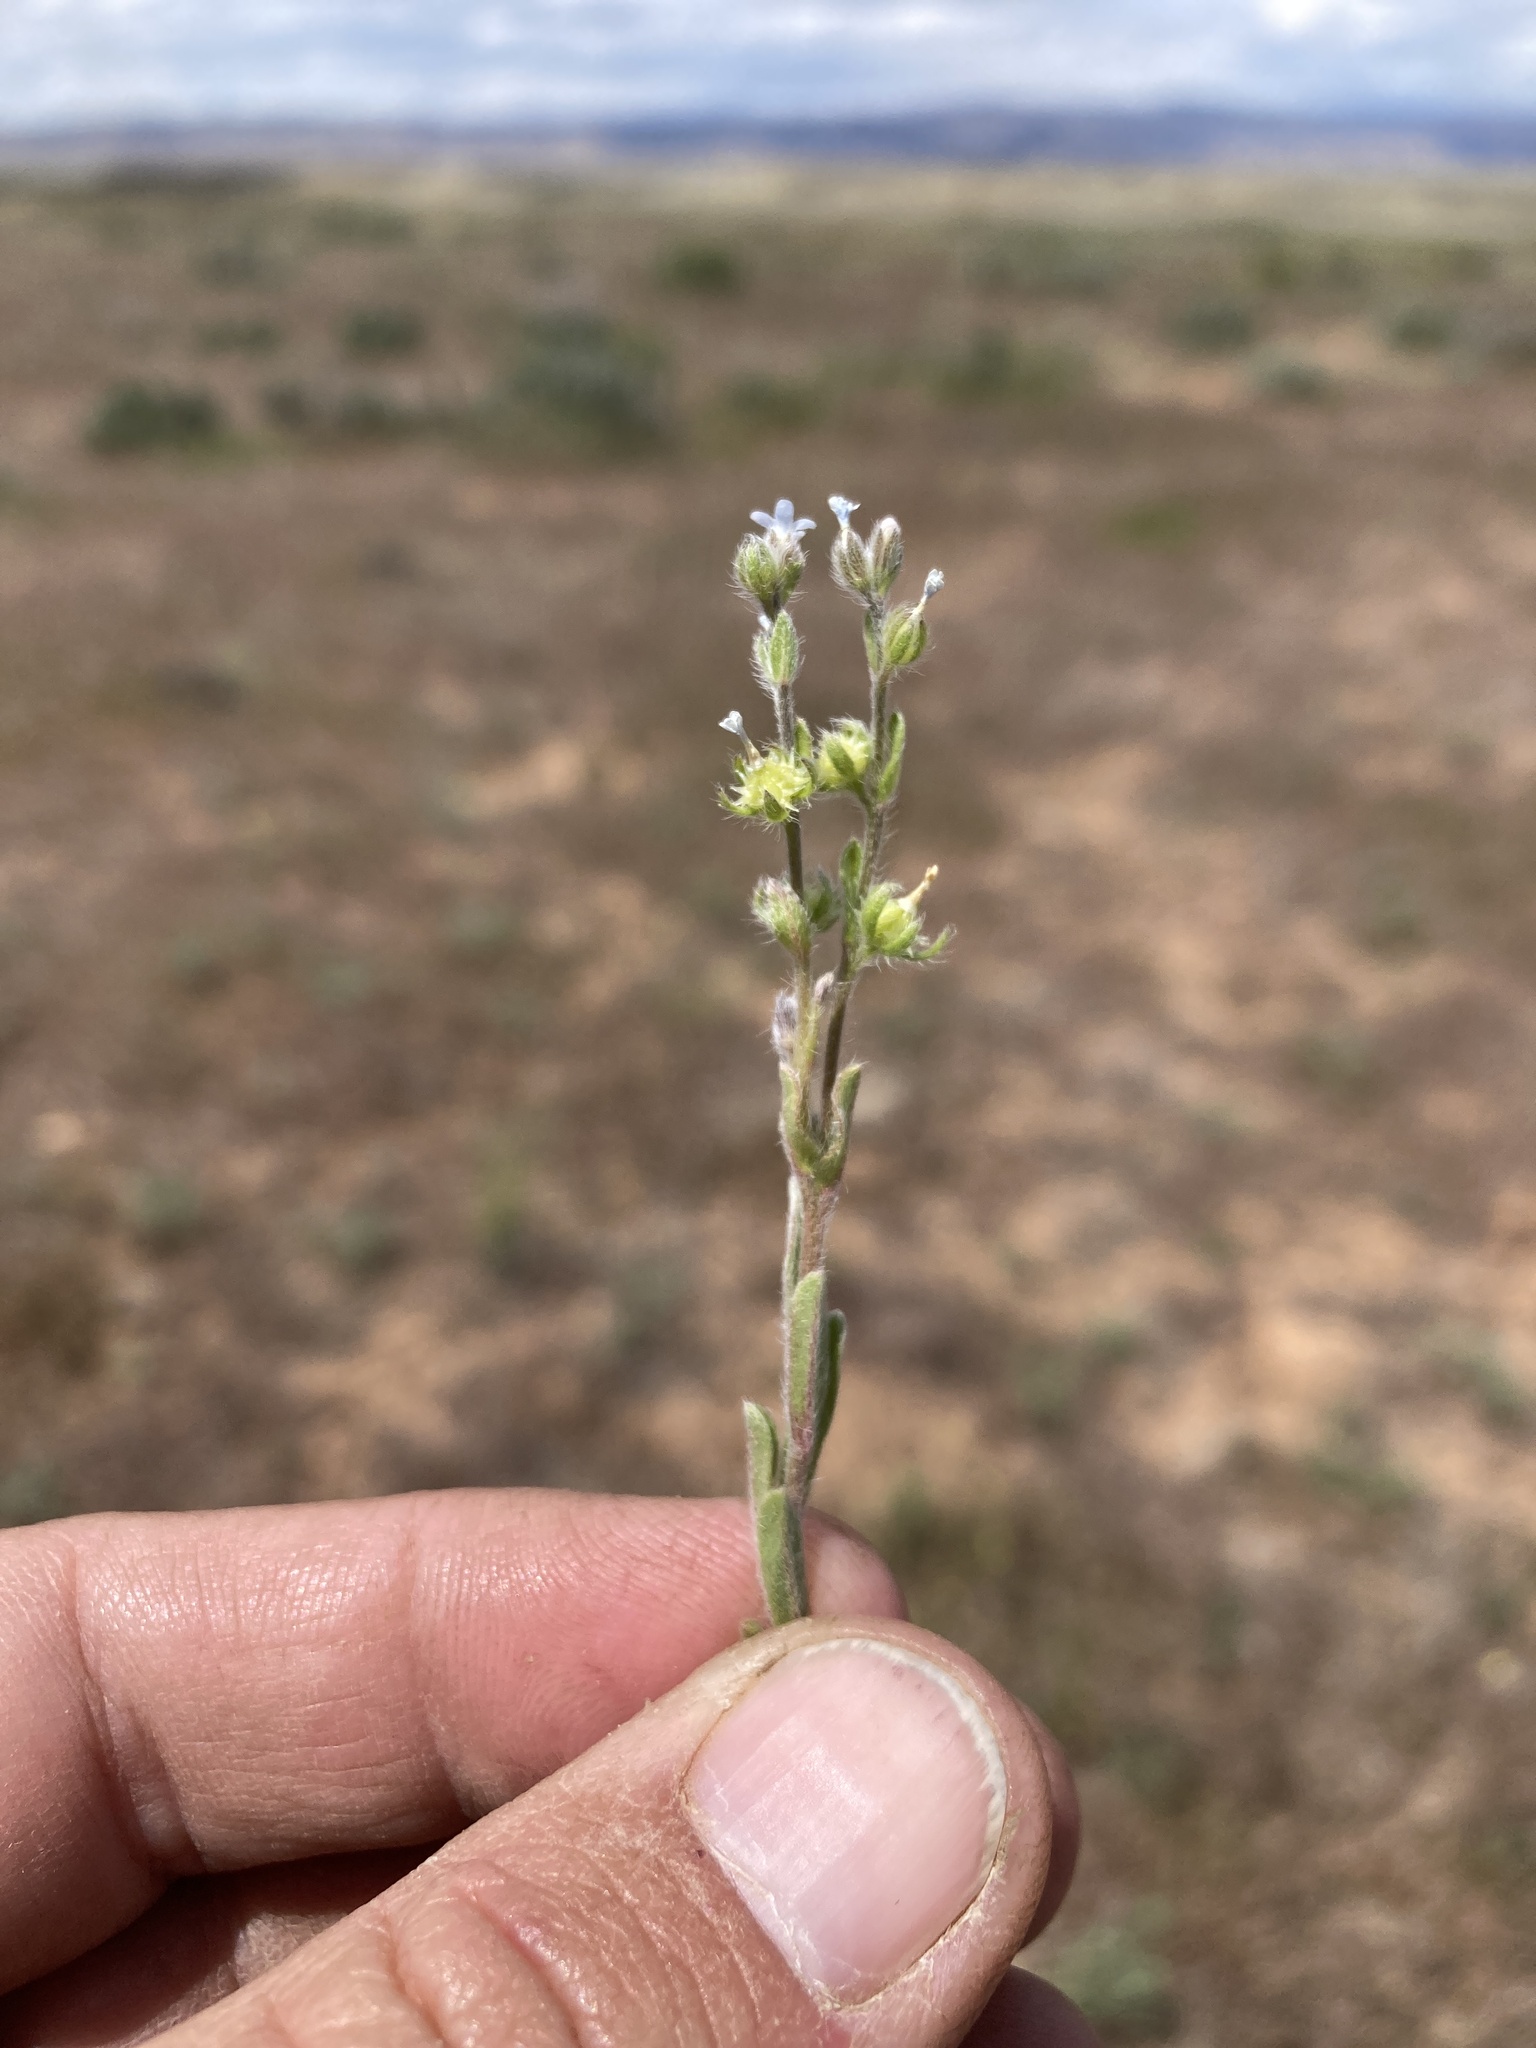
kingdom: Plantae
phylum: Tracheophyta
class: Magnoliopsida
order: Boraginales
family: Boraginaceae
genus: Lappula
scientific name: Lappula occidentalis
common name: Western stickseed
